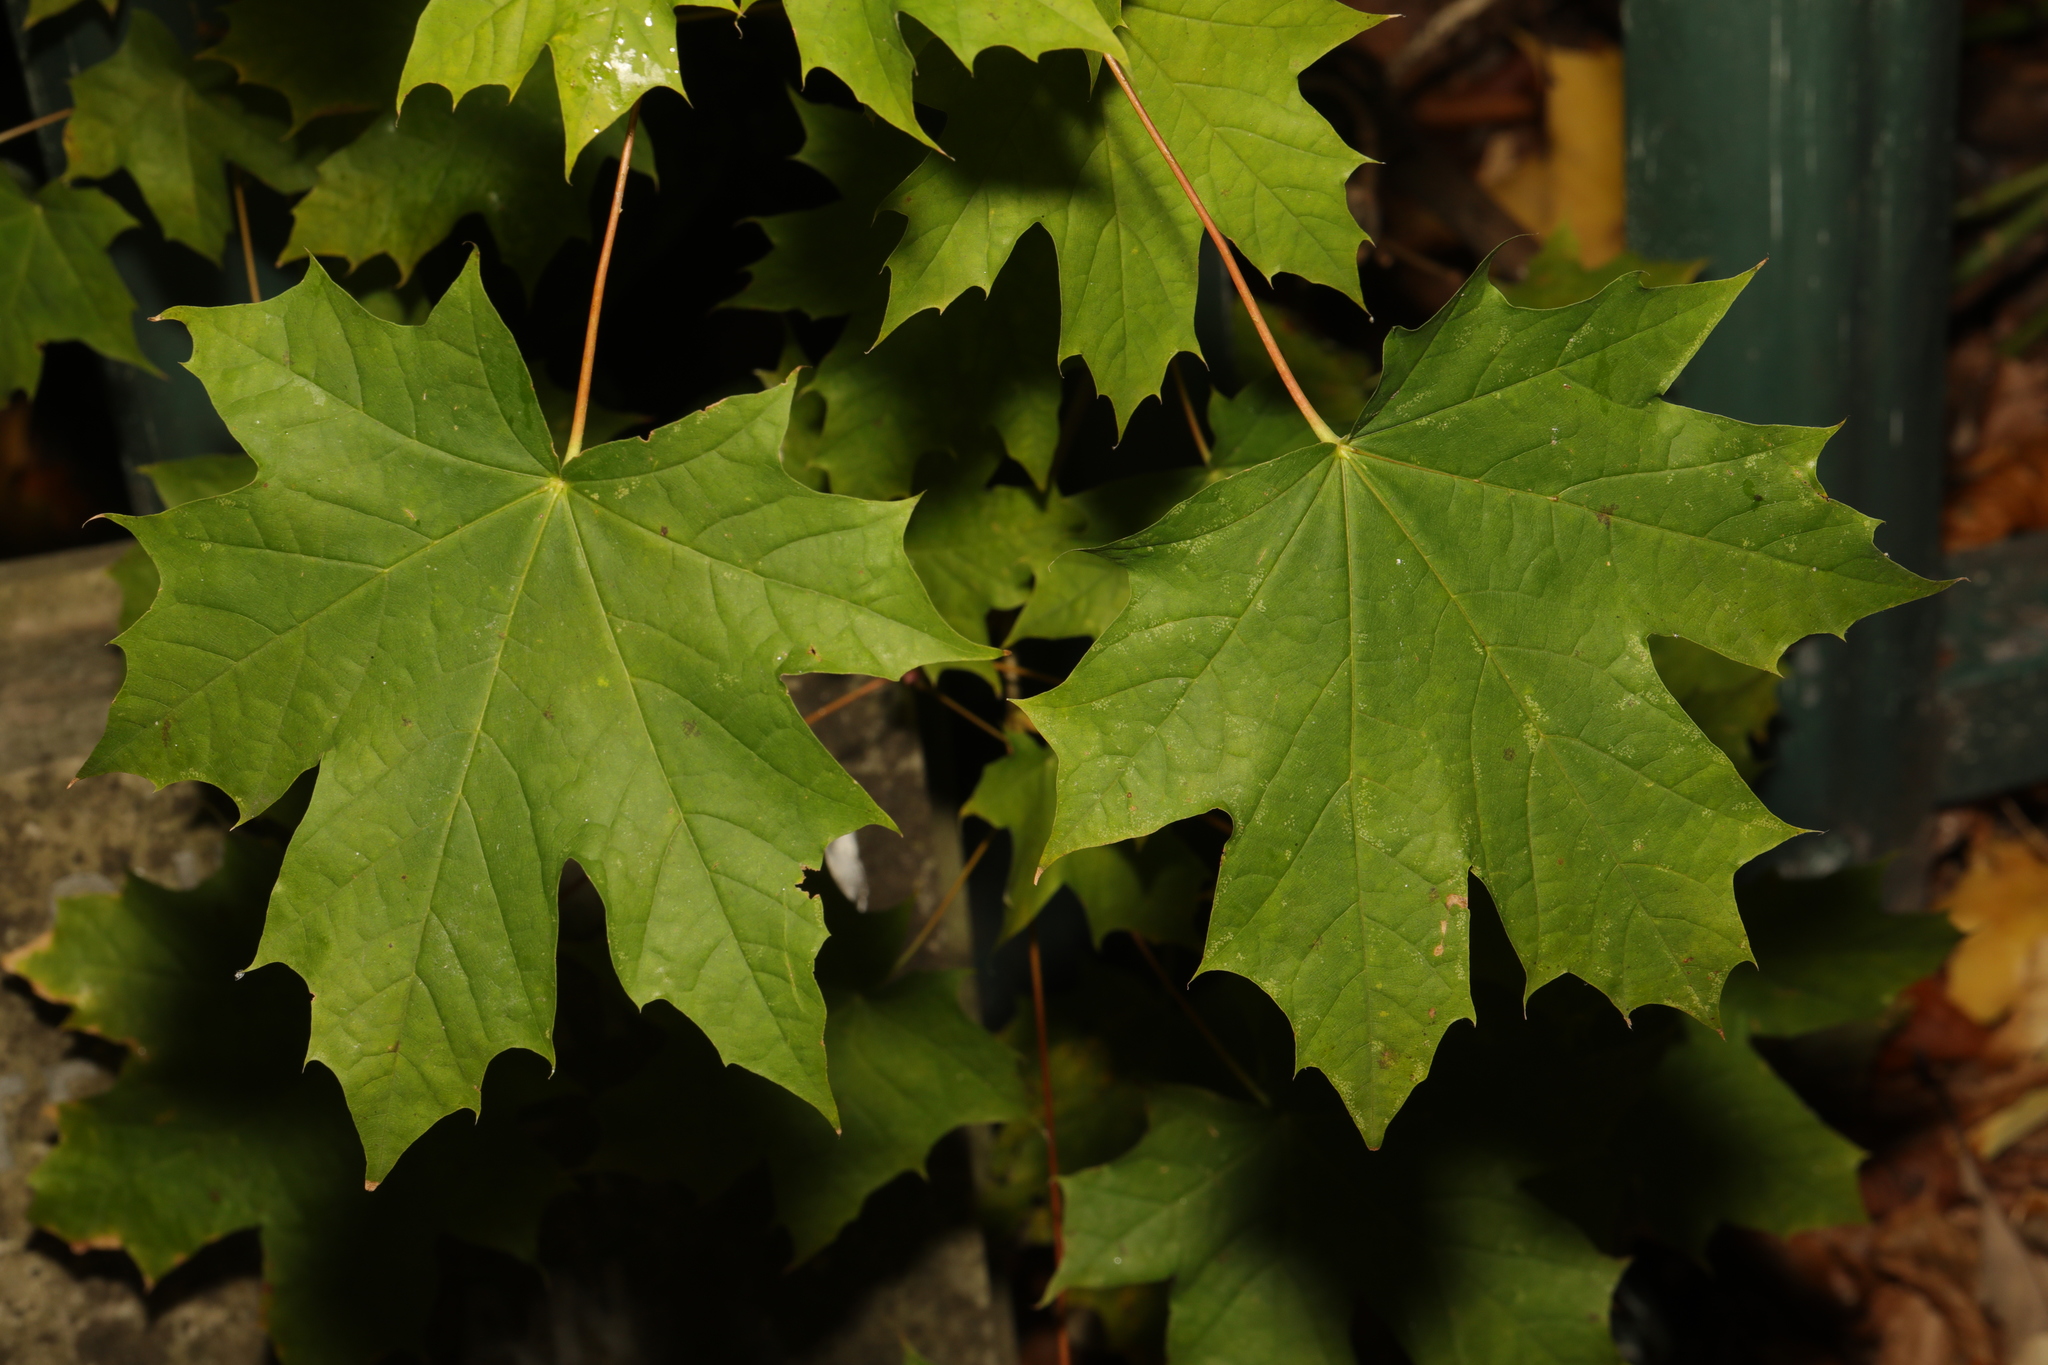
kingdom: Plantae
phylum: Tracheophyta
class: Magnoliopsida
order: Sapindales
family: Sapindaceae
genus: Acer
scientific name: Acer platanoides
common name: Norway maple
